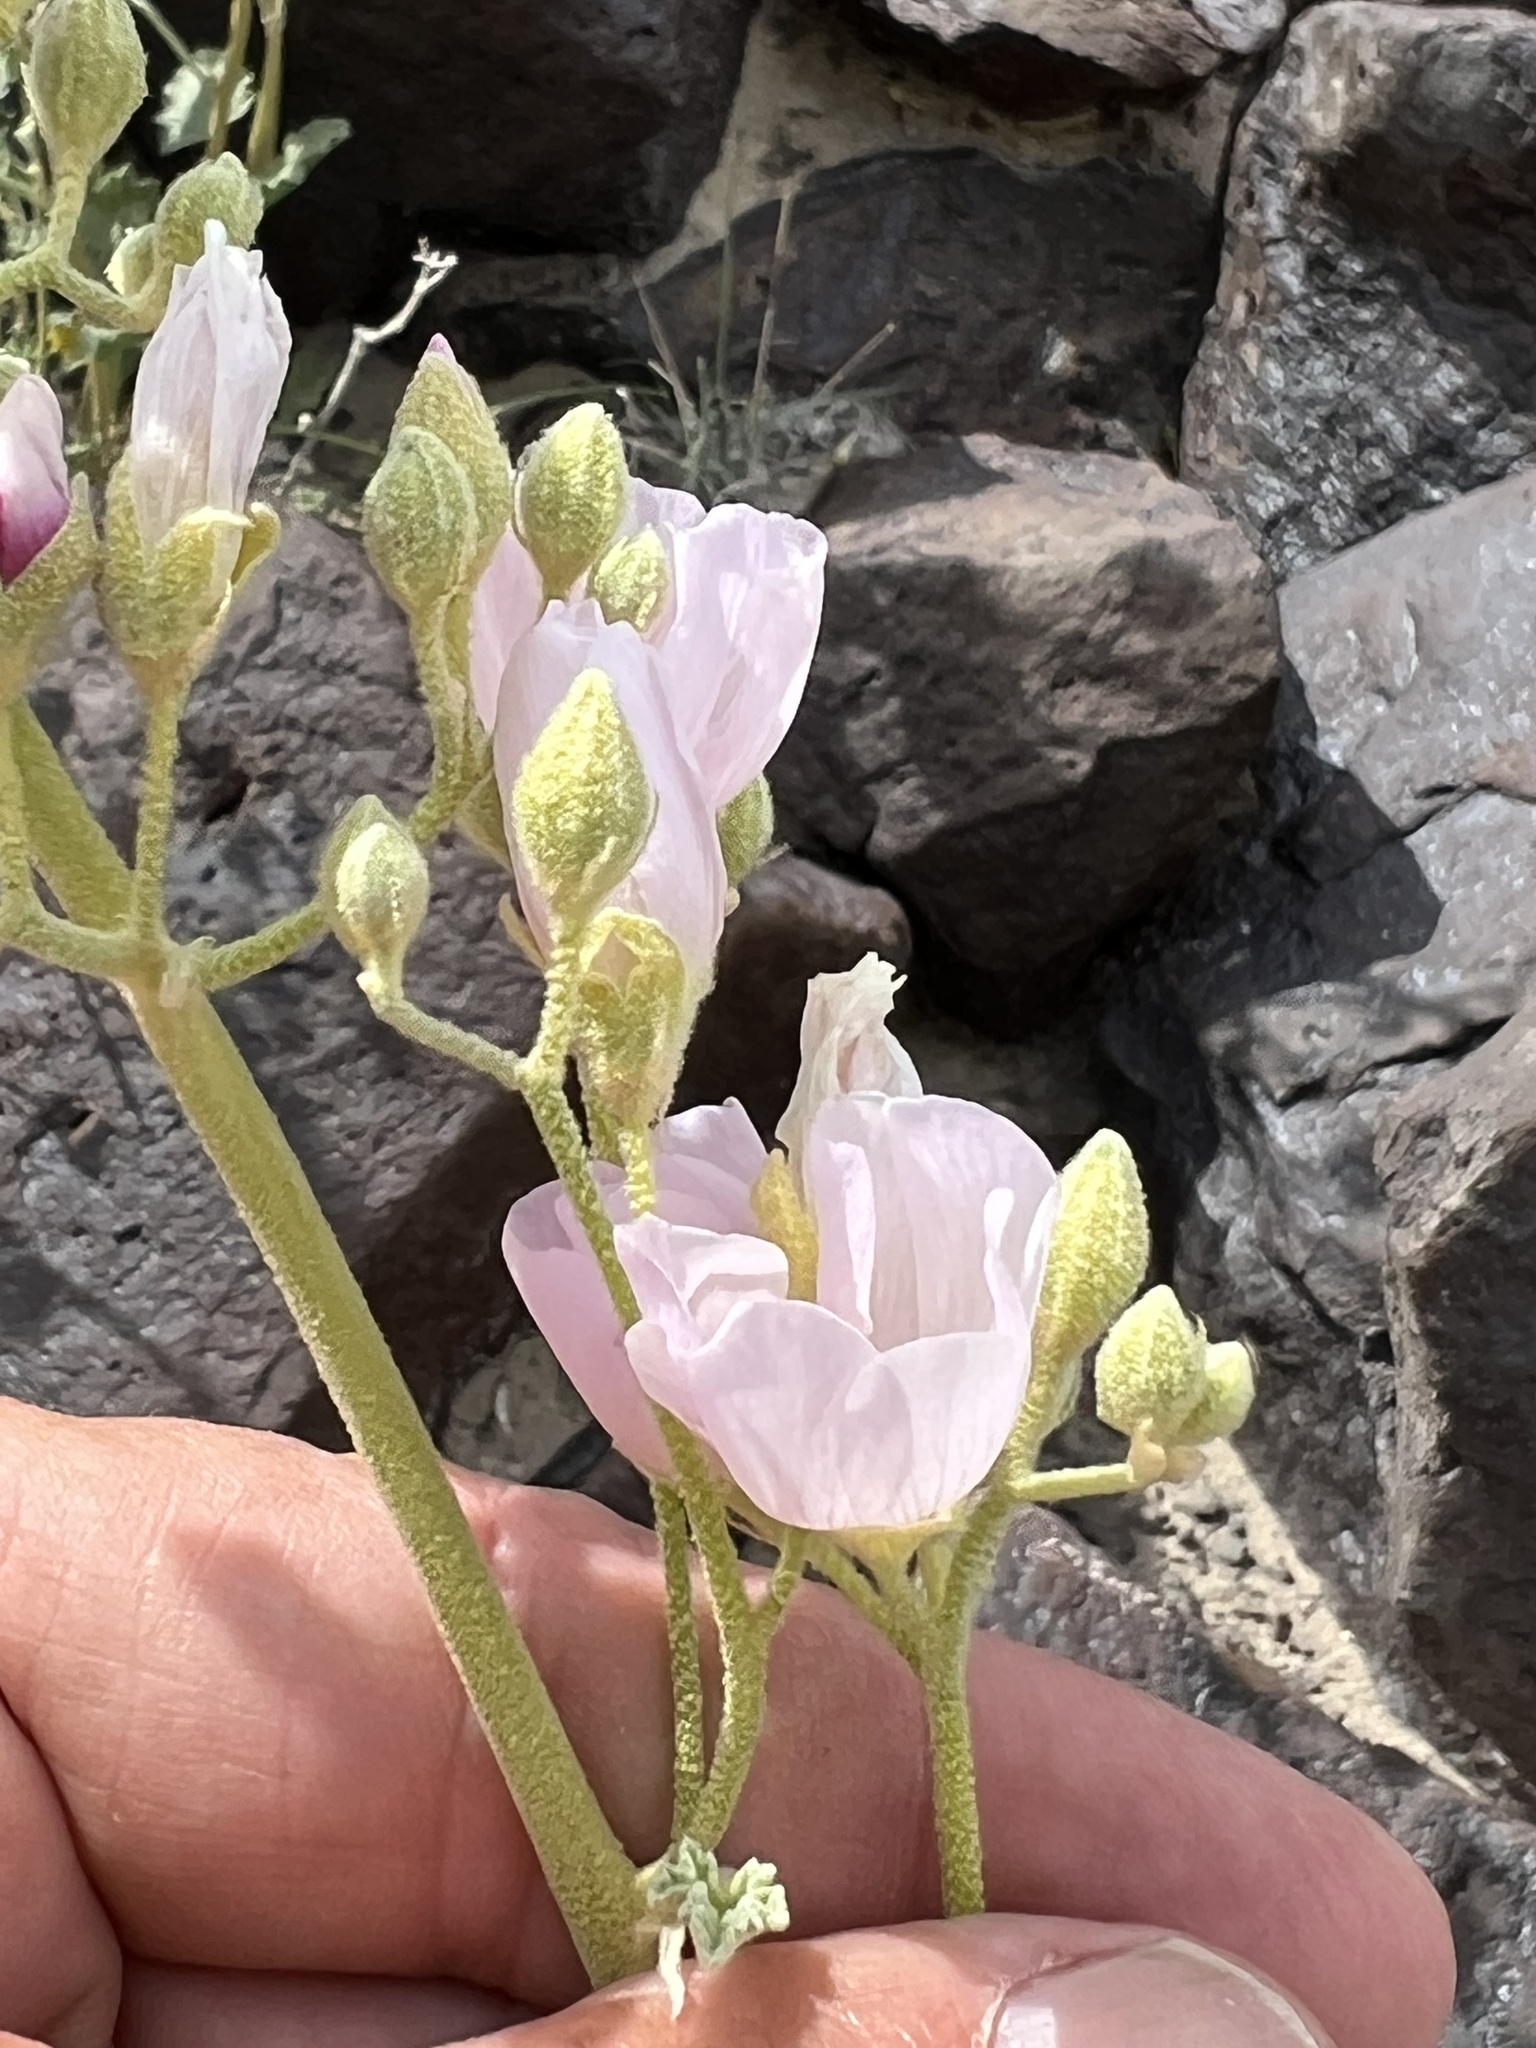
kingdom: Plantae
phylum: Tracheophyta
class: Magnoliopsida
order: Malvales
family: Malvaceae
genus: Sphaeralcea
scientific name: Sphaeralcea ambigua
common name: Apricot globe-mallow
